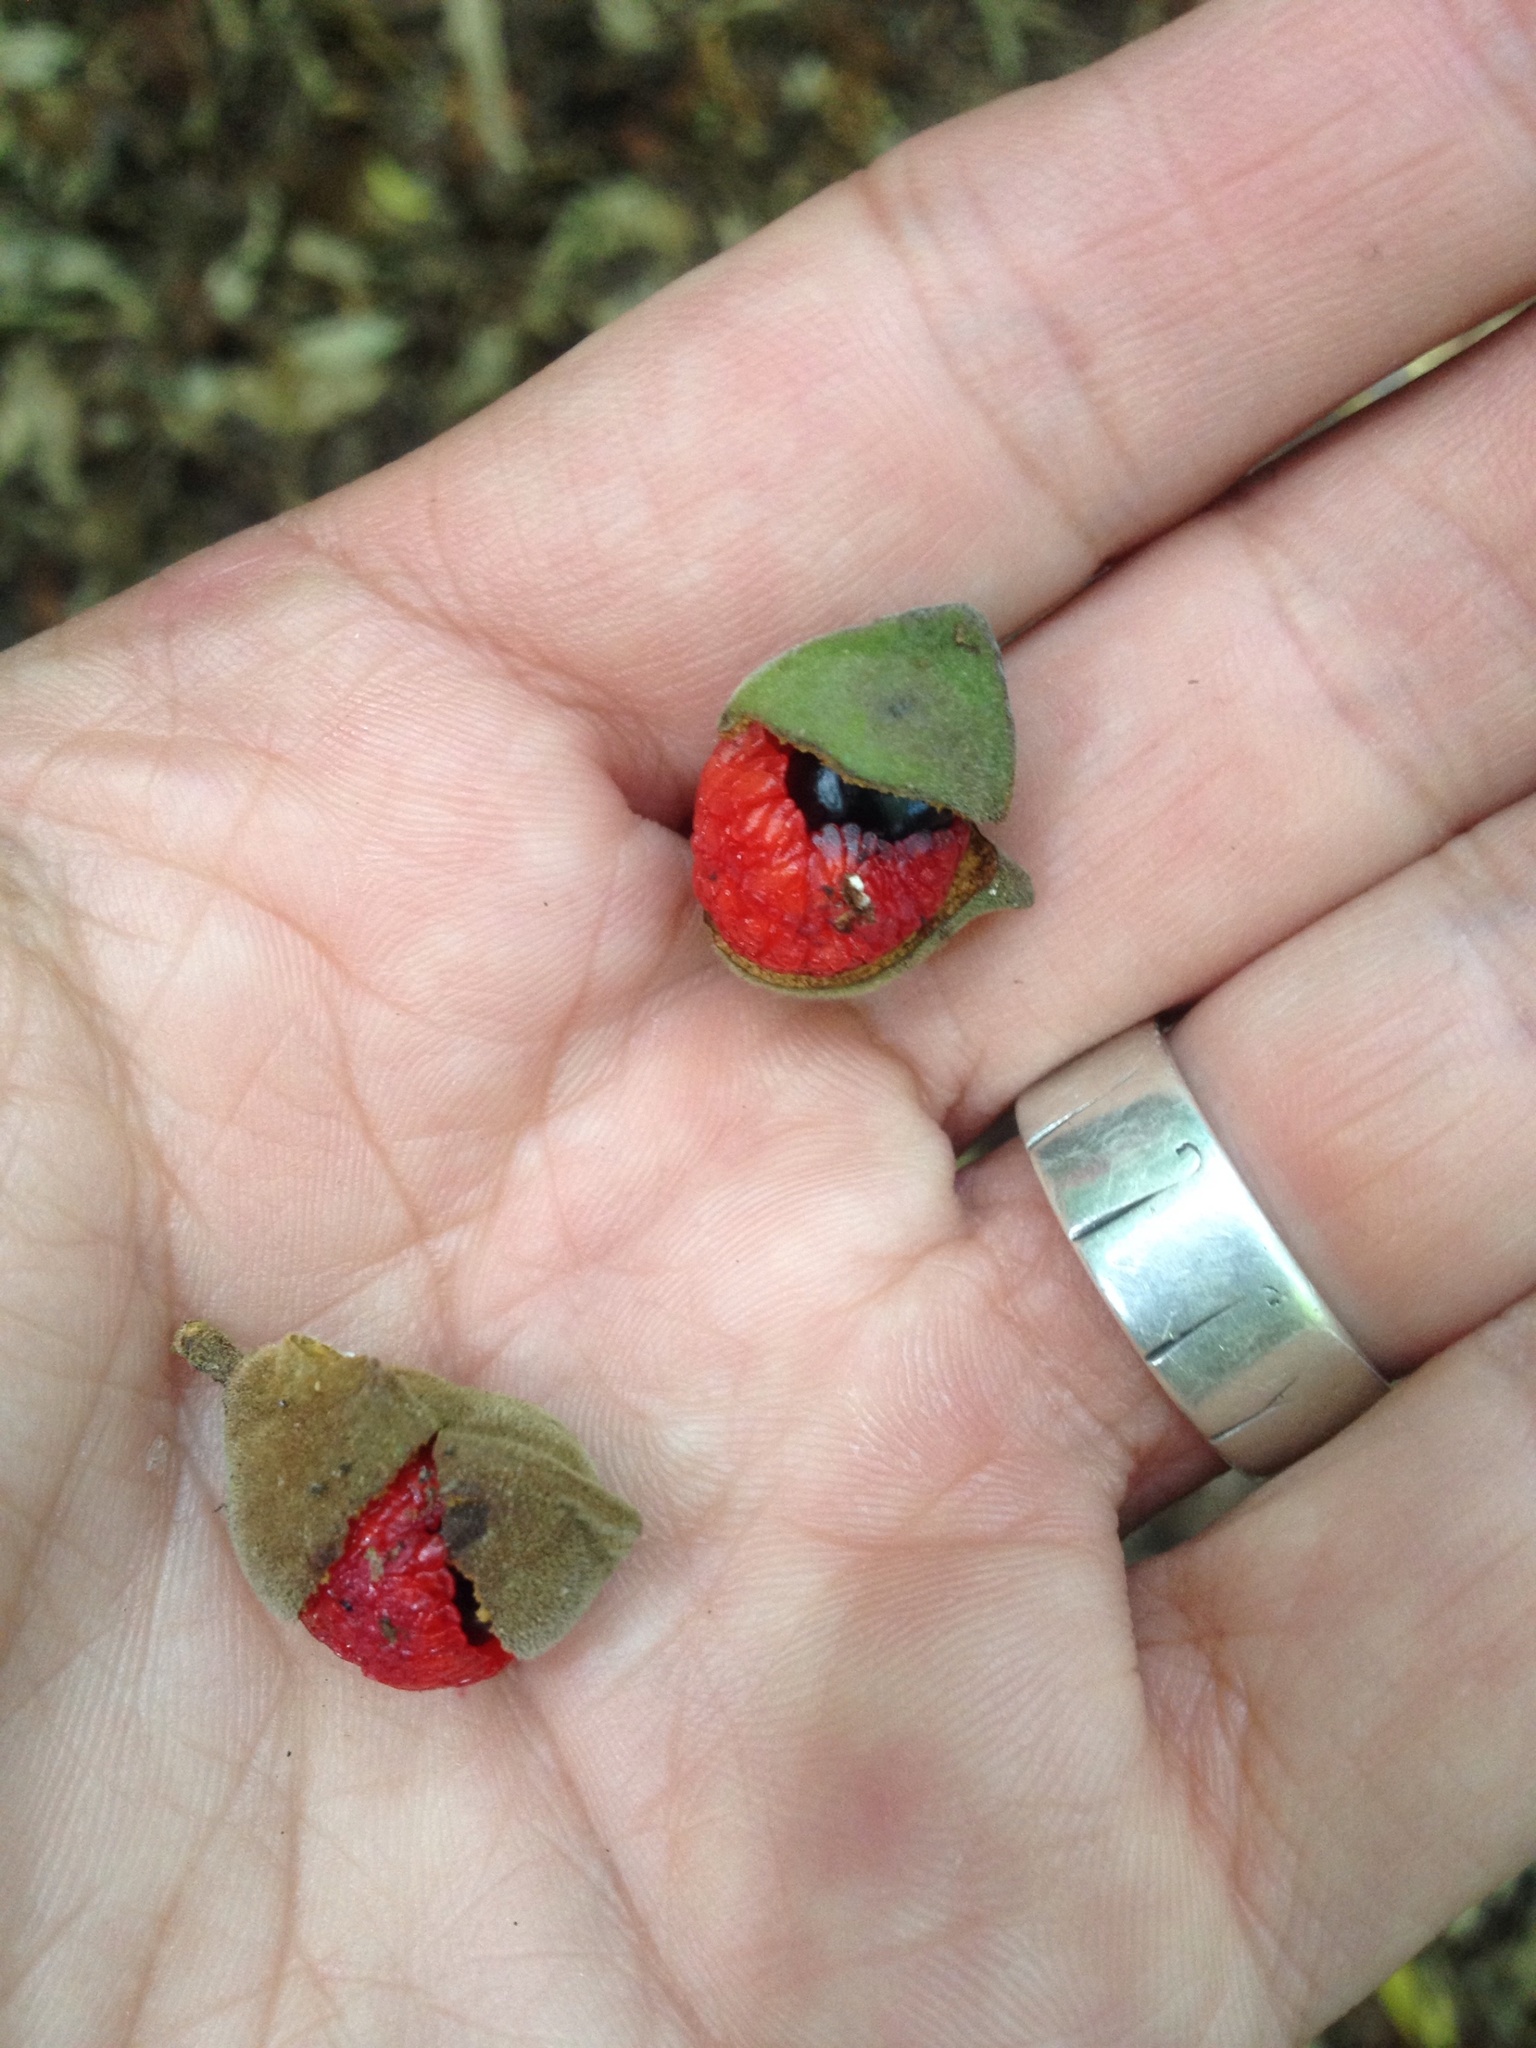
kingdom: Plantae
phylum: Tracheophyta
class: Magnoliopsida
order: Sapindales
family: Sapindaceae
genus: Alectryon
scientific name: Alectryon excelsus
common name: Three kings titoki
